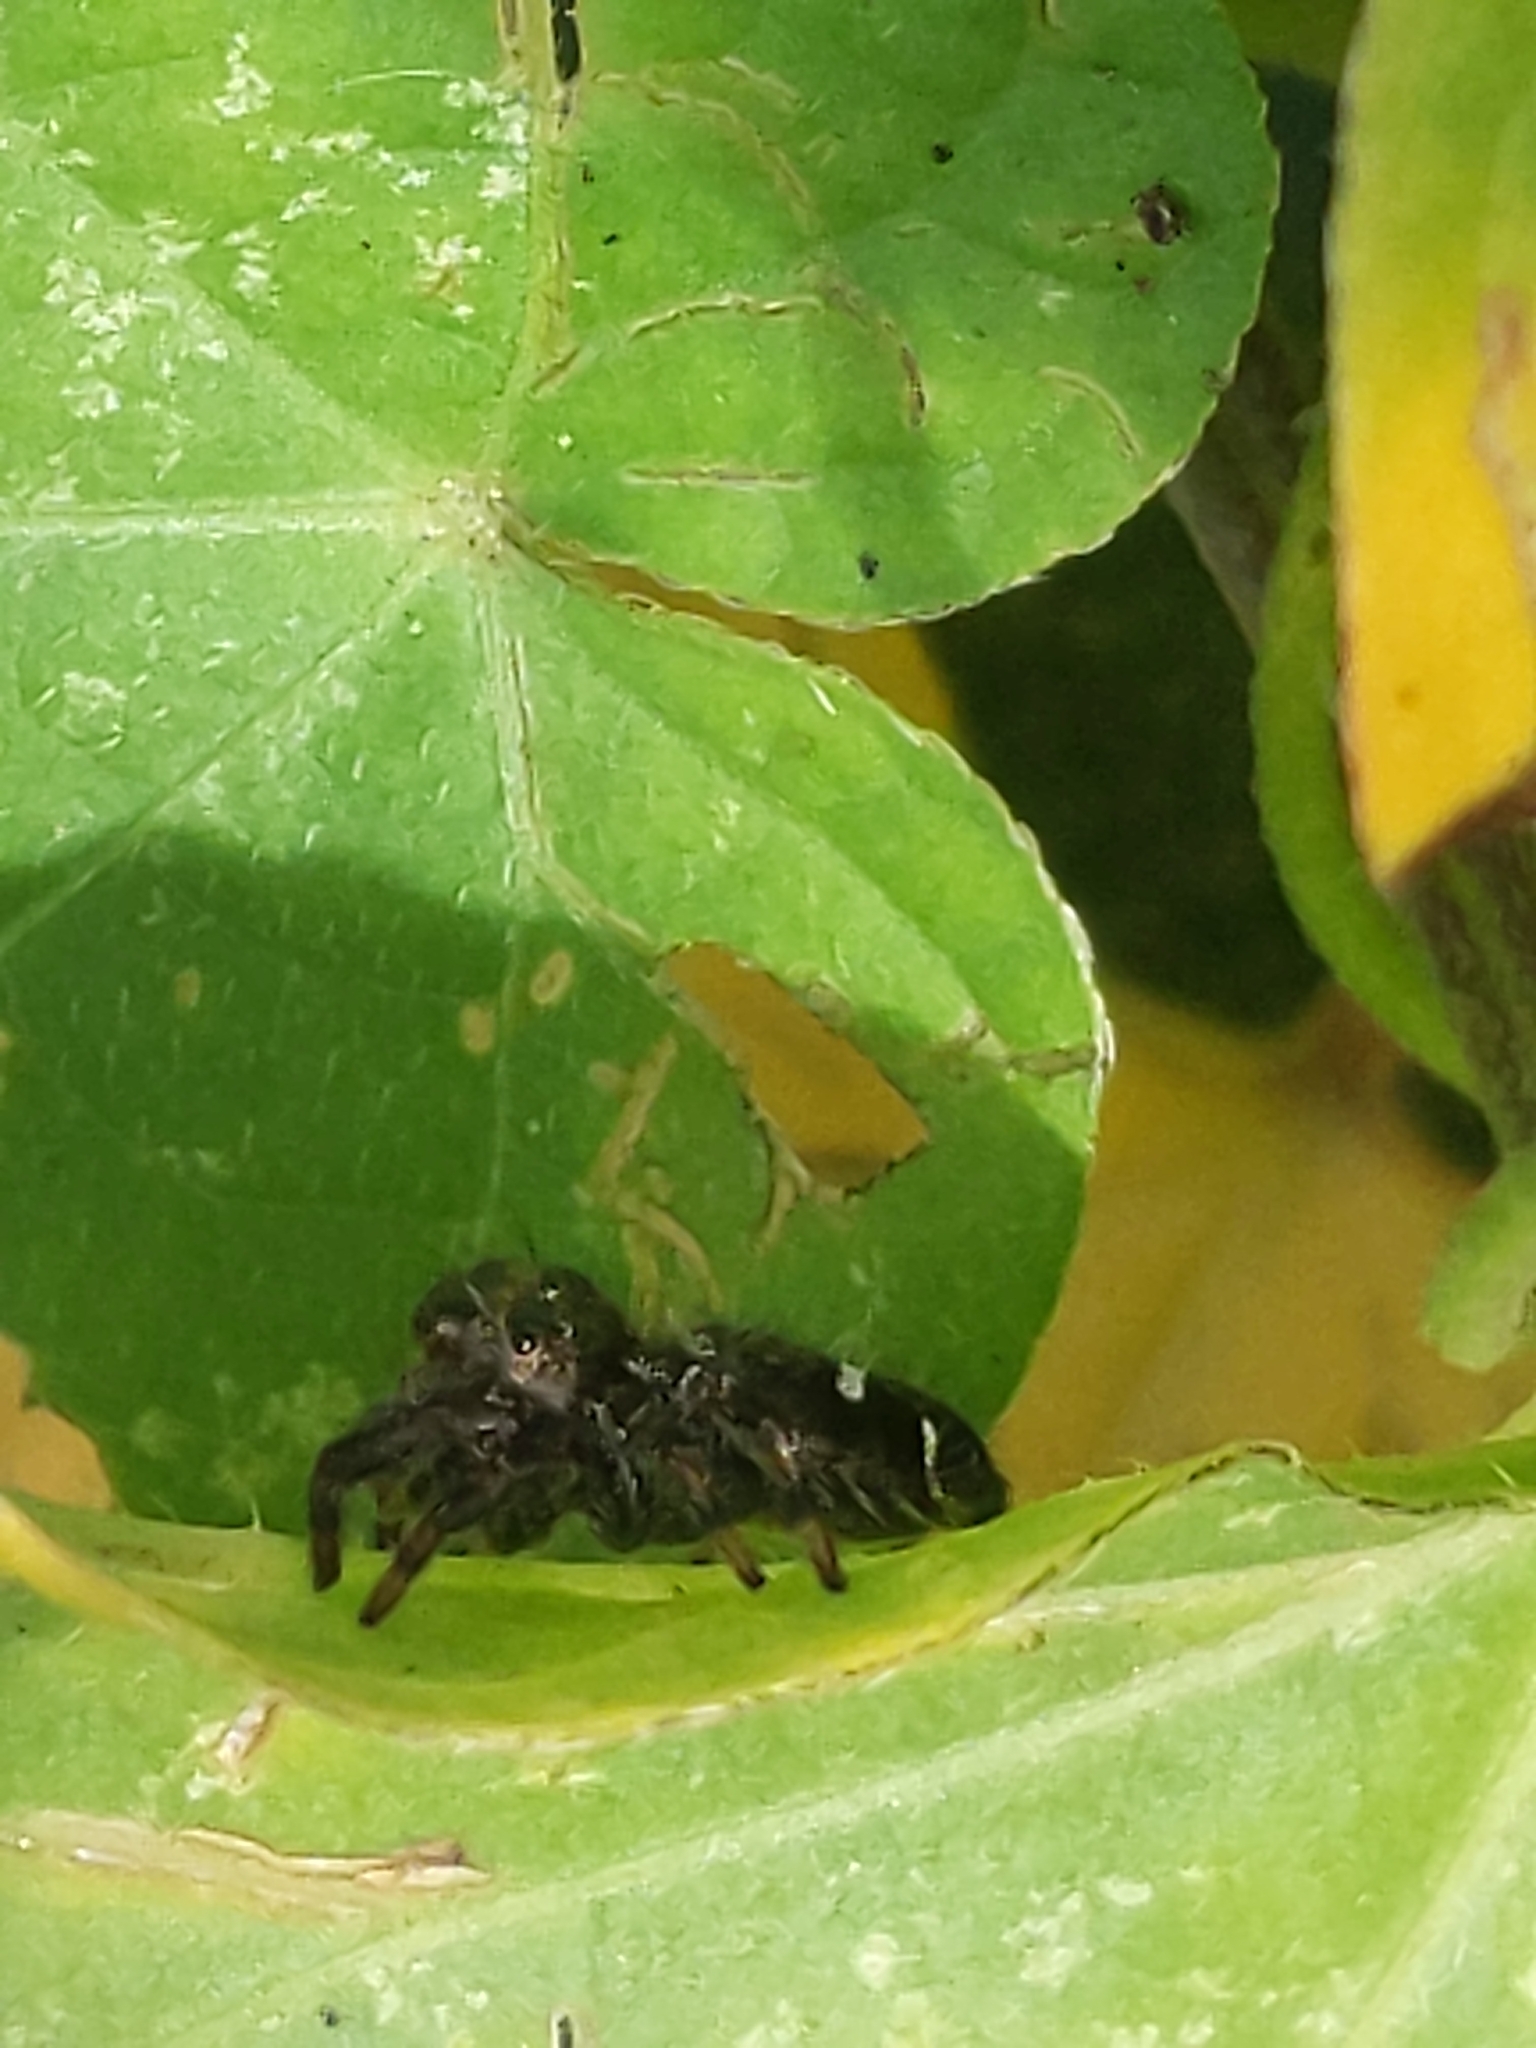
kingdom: Animalia
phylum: Arthropoda
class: Arachnida
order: Araneae
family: Salticidae
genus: Phidippus
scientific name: Phidippus audax
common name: Bold jumper
